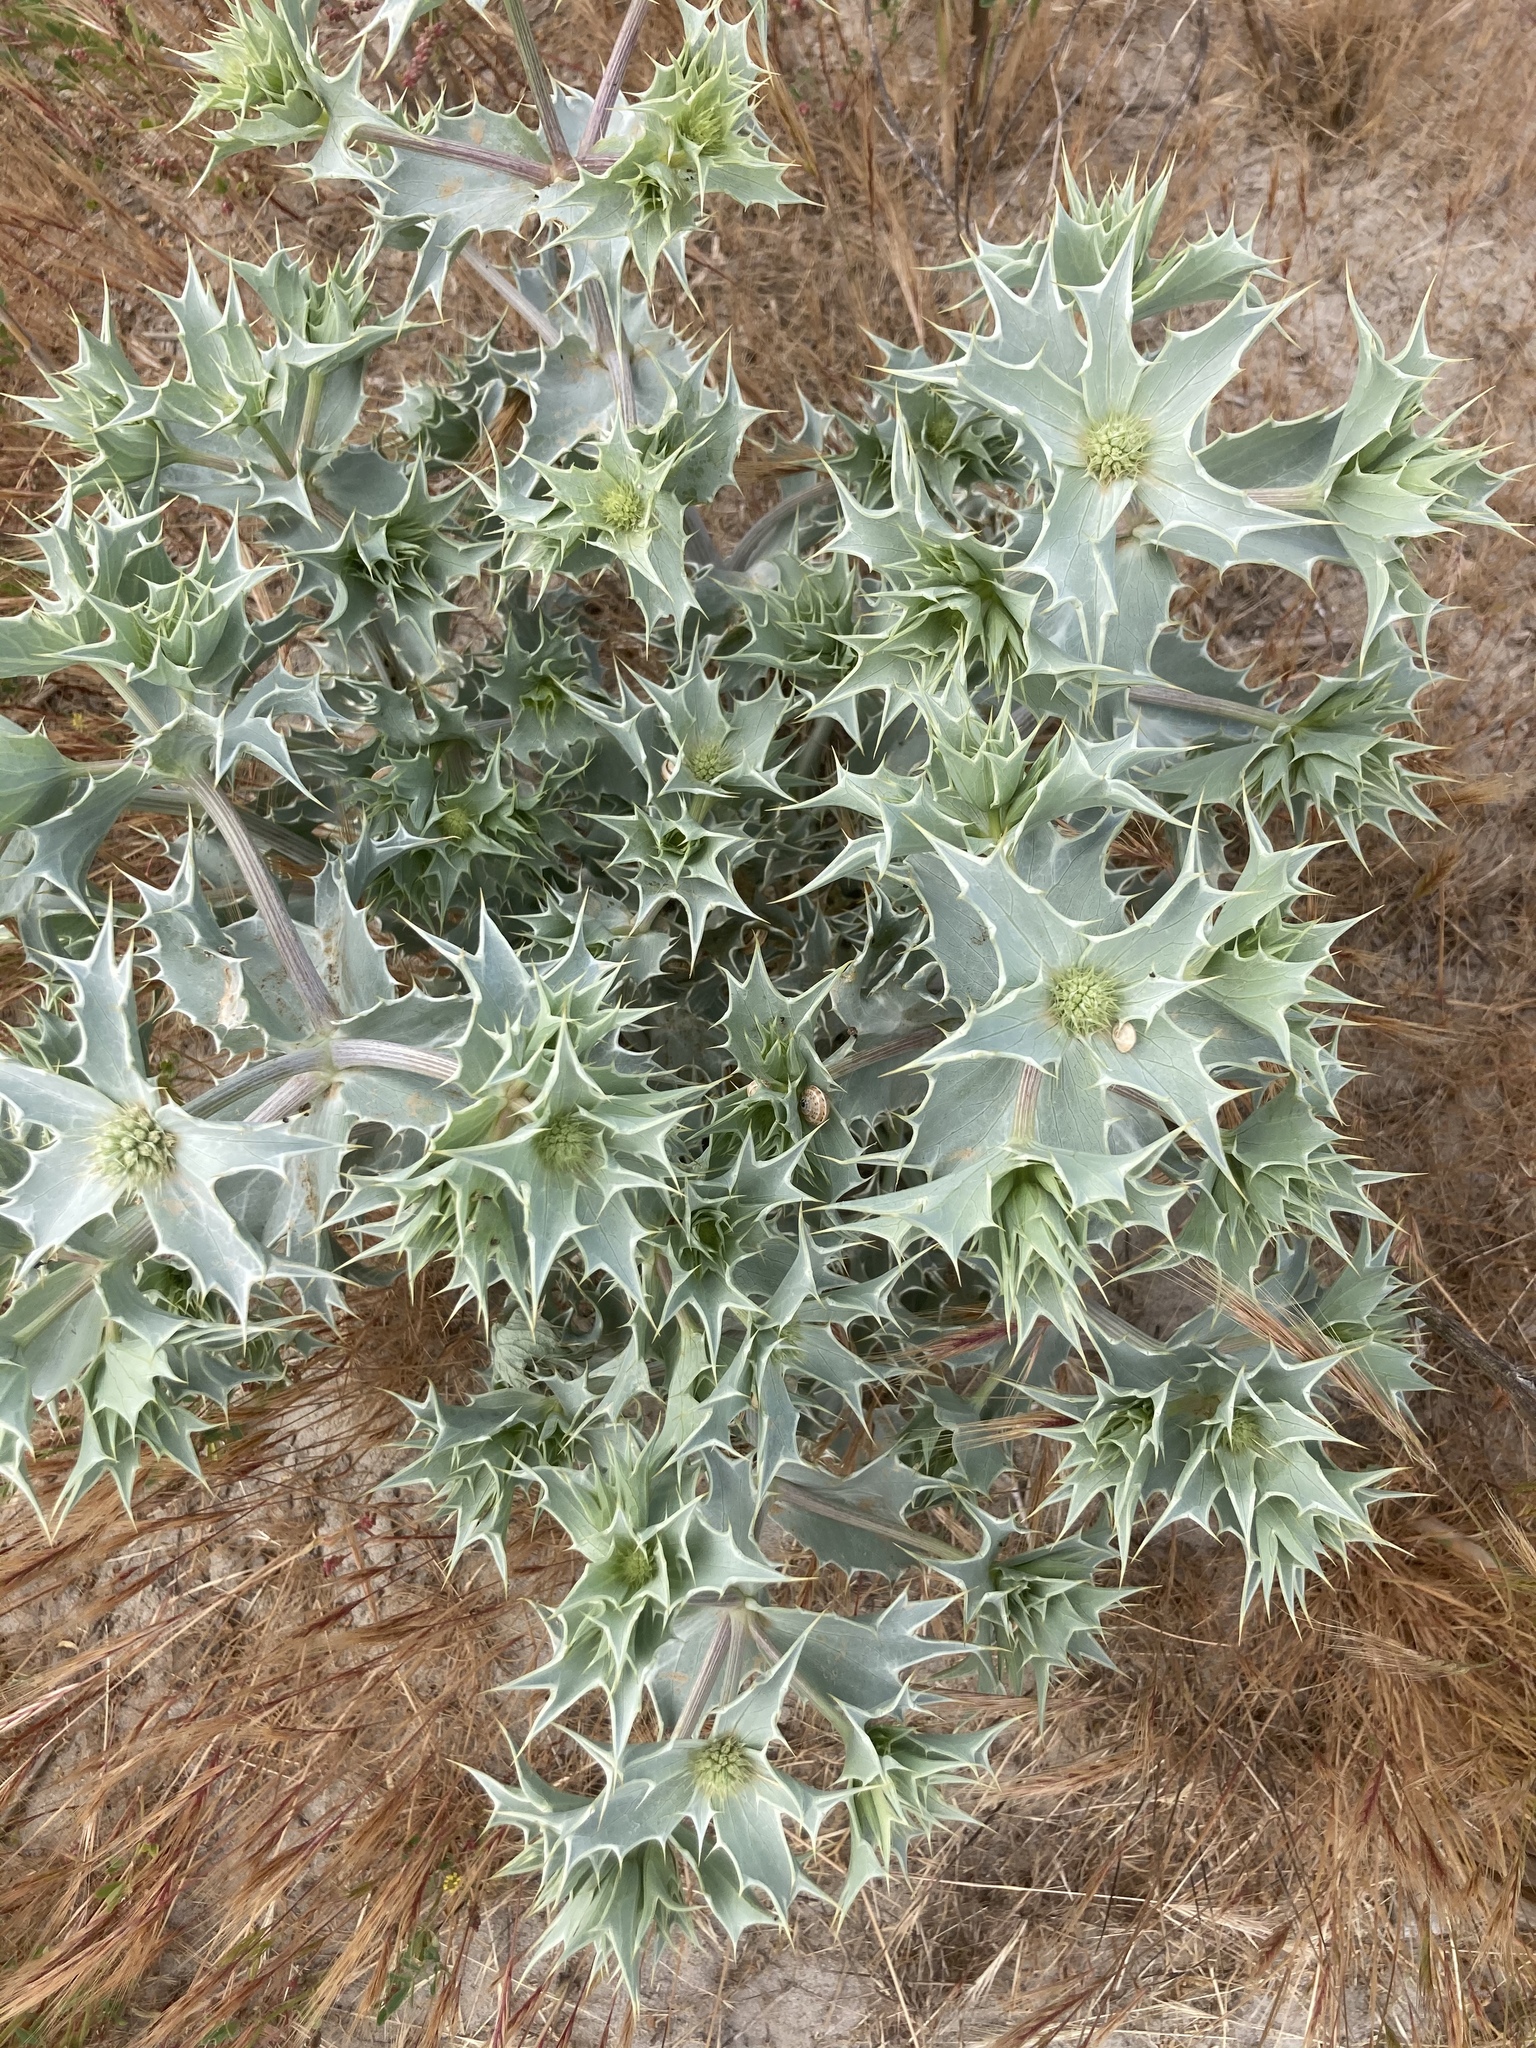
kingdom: Plantae
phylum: Tracheophyta
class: Magnoliopsida
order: Apiales
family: Apiaceae
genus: Eryngium
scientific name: Eryngium maritimum
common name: Sea-holly
